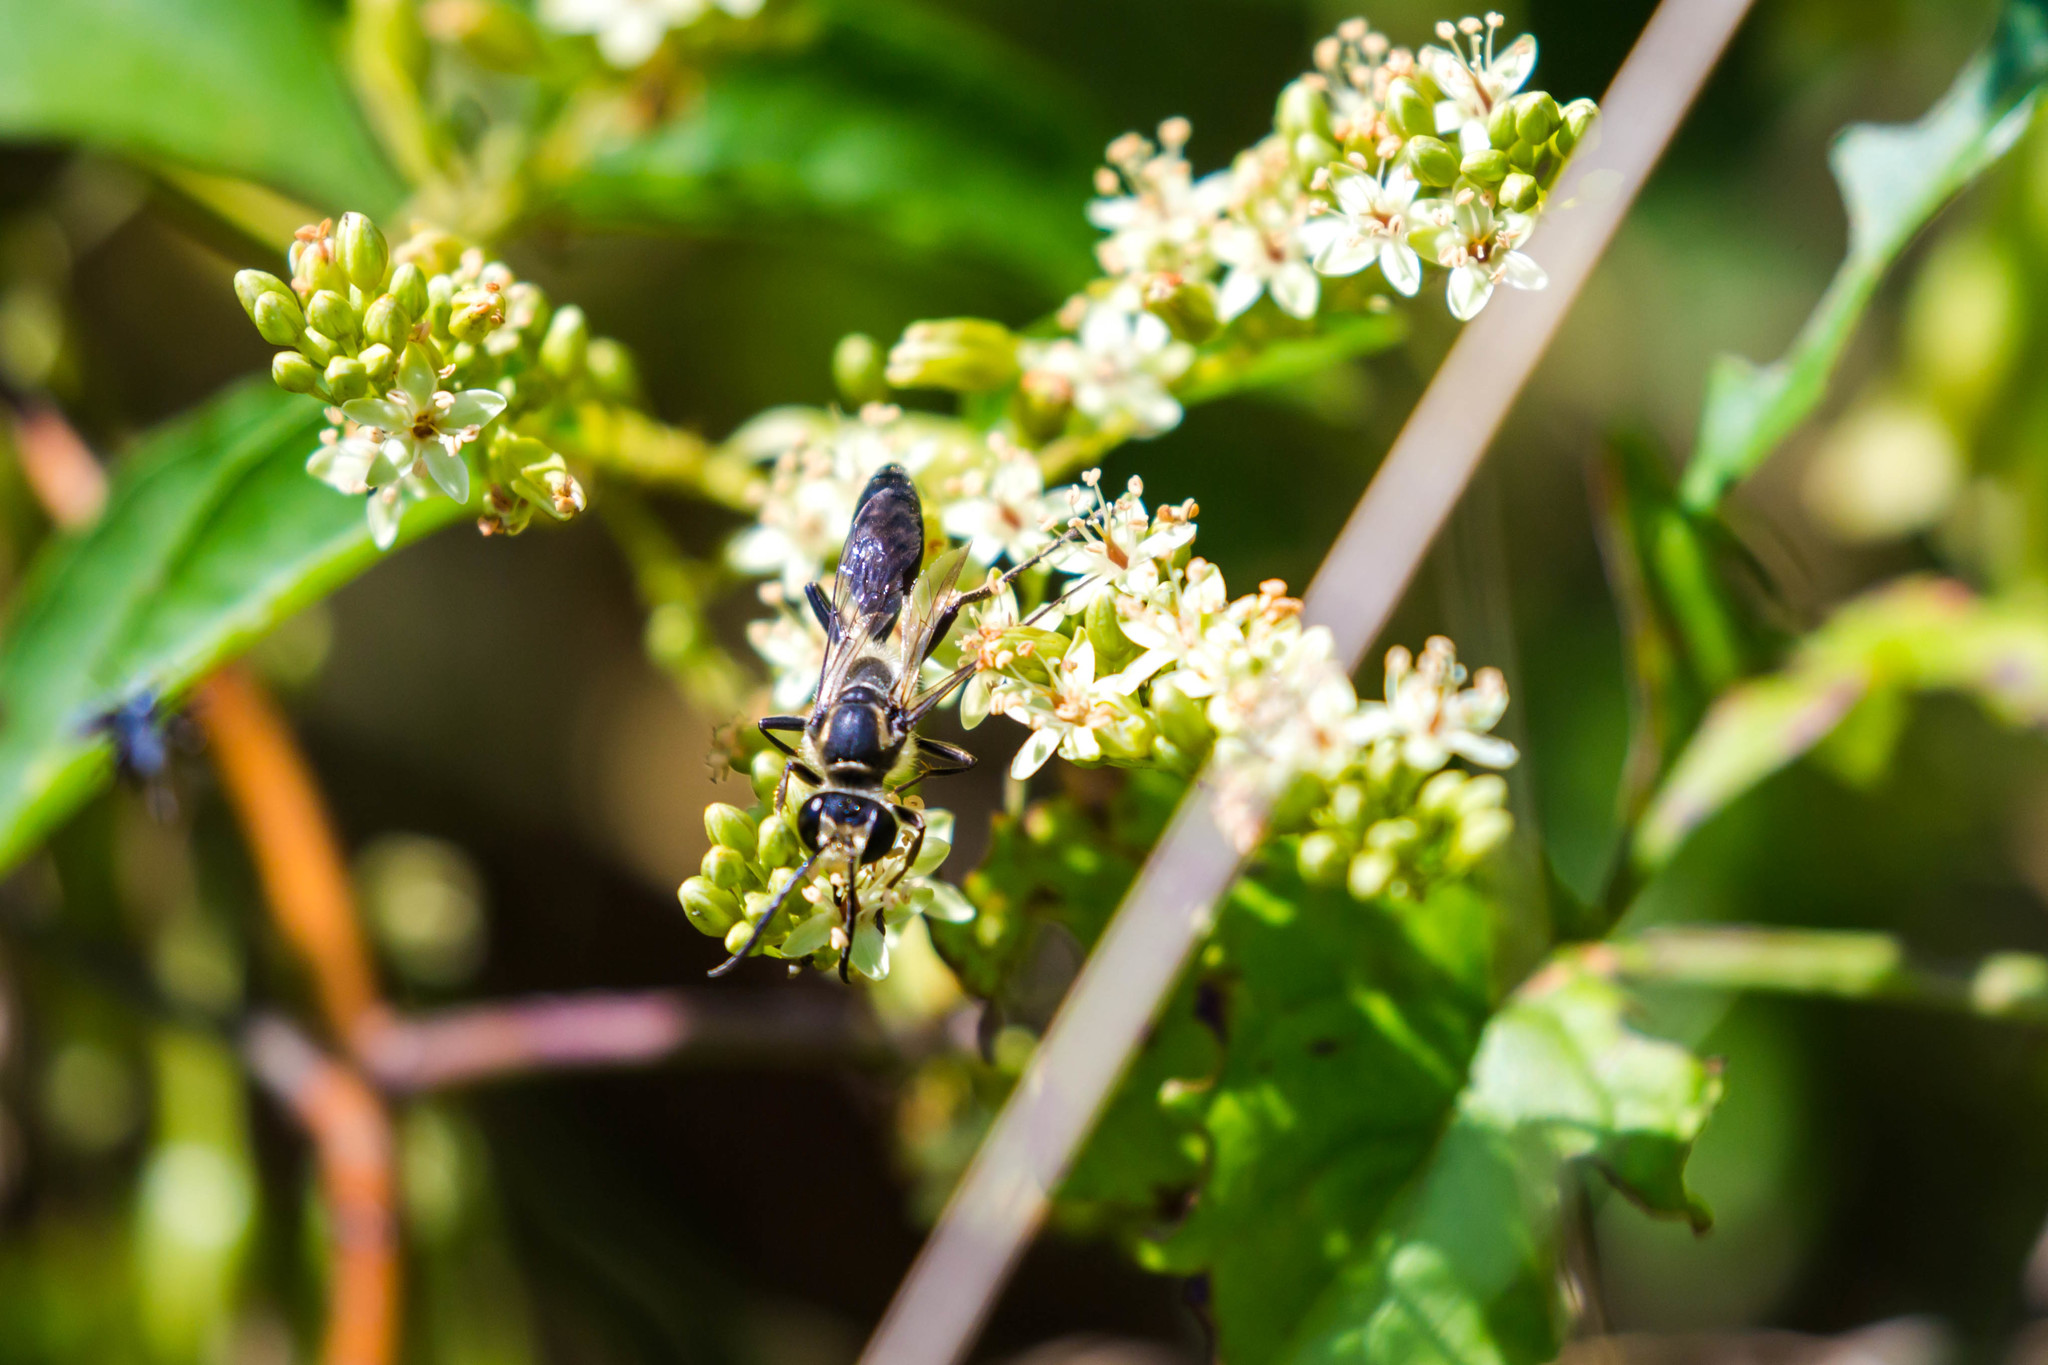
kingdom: Animalia
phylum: Arthropoda
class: Insecta
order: Hymenoptera
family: Sphecidae
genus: Sphex
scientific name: Sphex habenus
